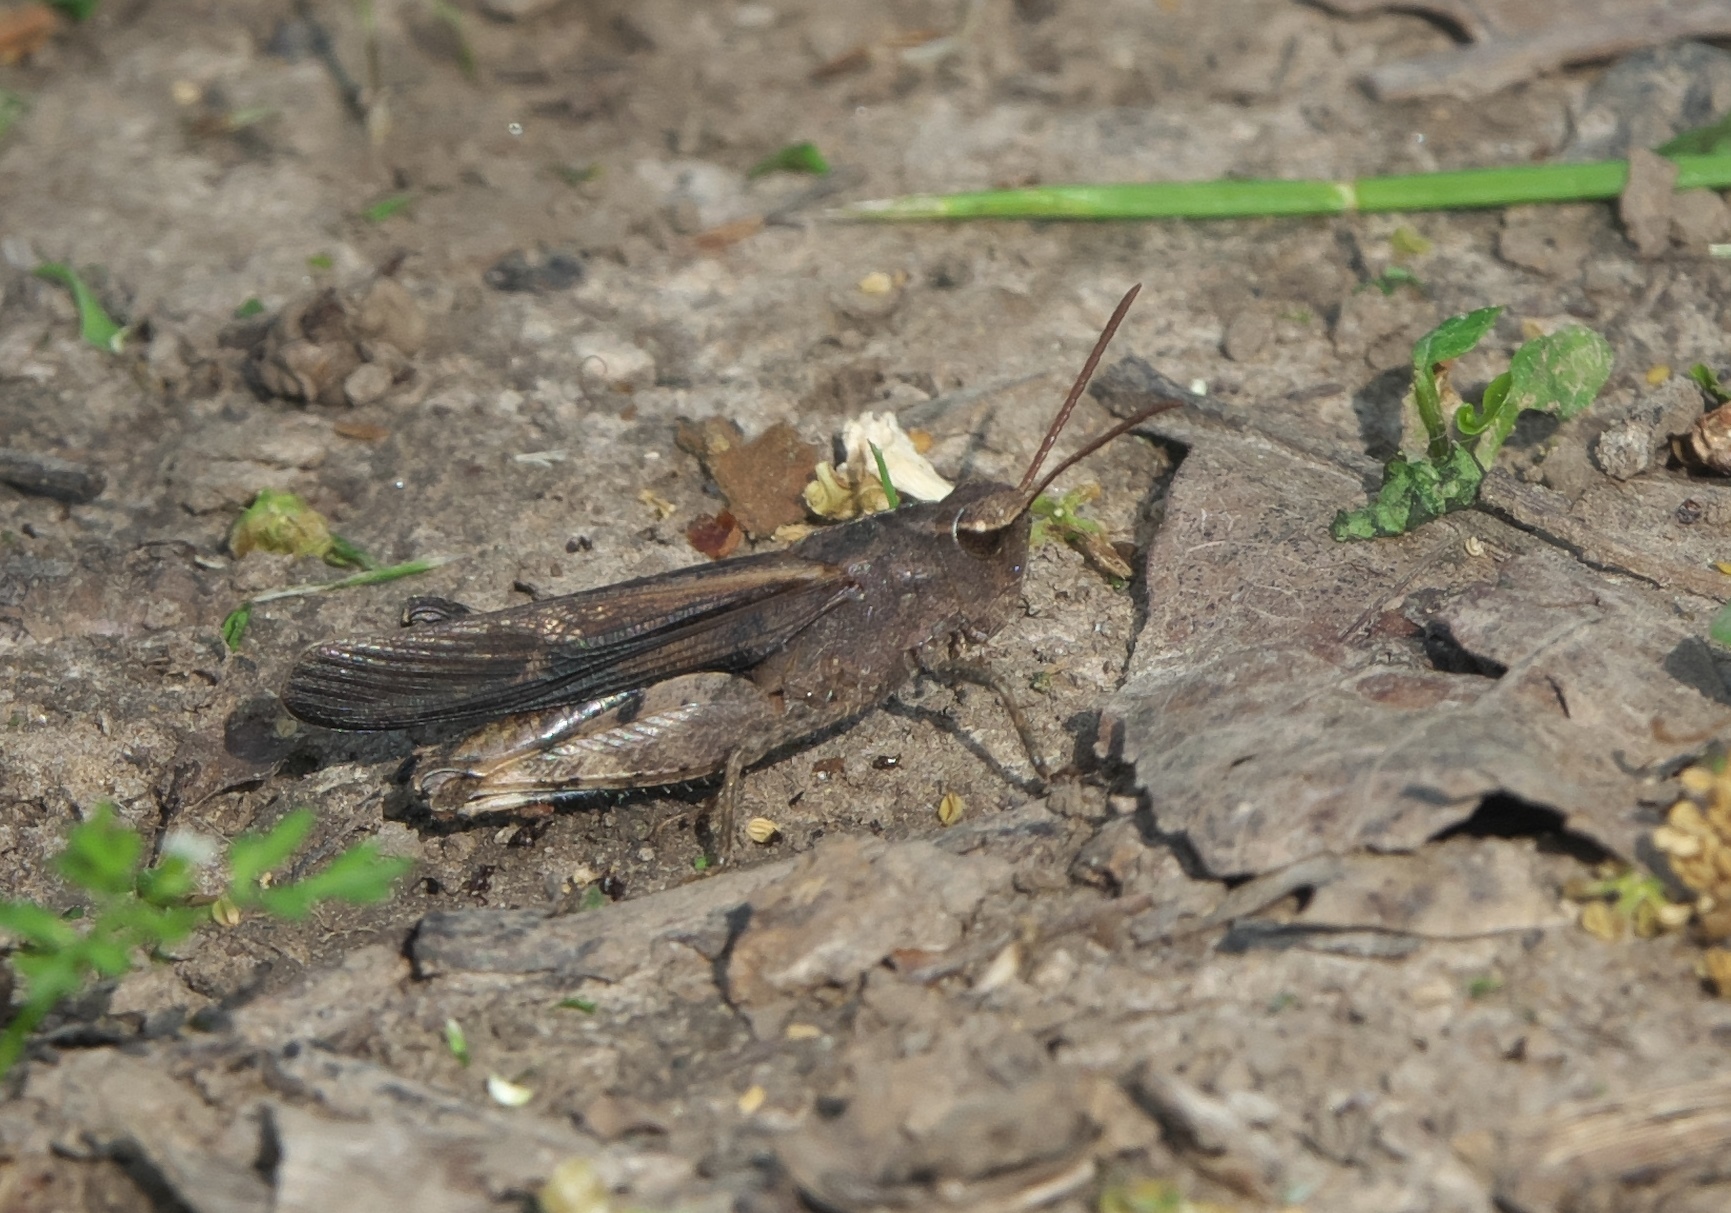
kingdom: Animalia
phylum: Arthropoda
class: Insecta
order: Orthoptera
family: Acrididae
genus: Chortophaga
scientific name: Chortophaga viridifasciata
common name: Green-striped grasshopper
